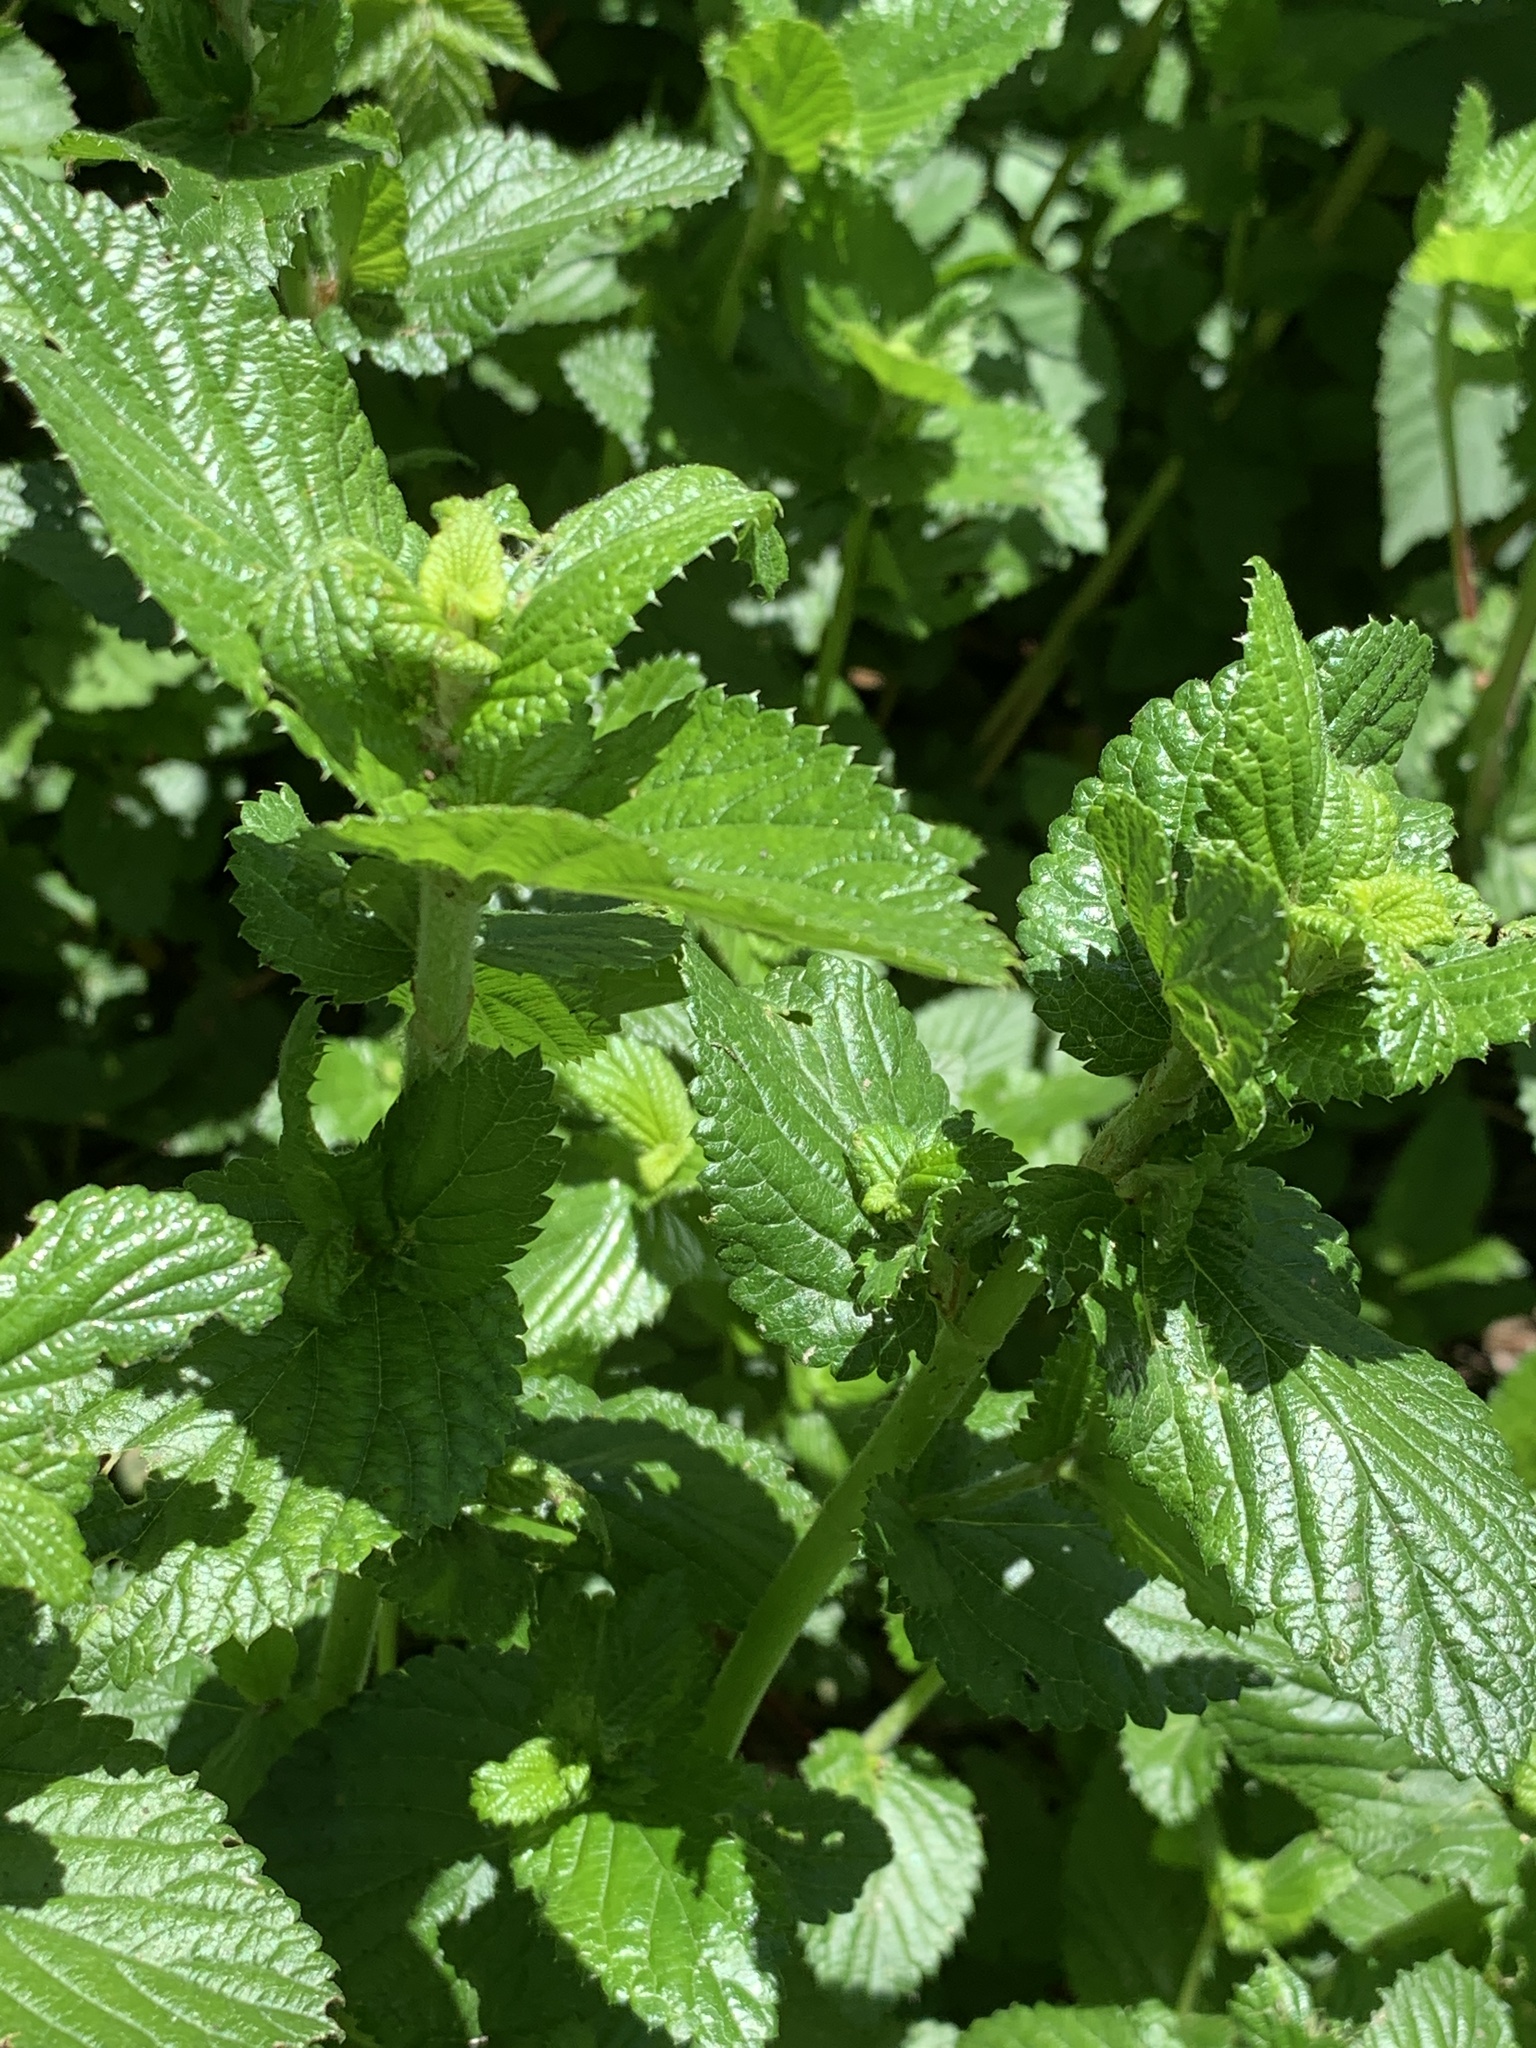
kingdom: Plantae
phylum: Tracheophyta
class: Magnoliopsida
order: Rosales
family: Rosaceae
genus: Cliffortia
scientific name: Cliffortia odorata
